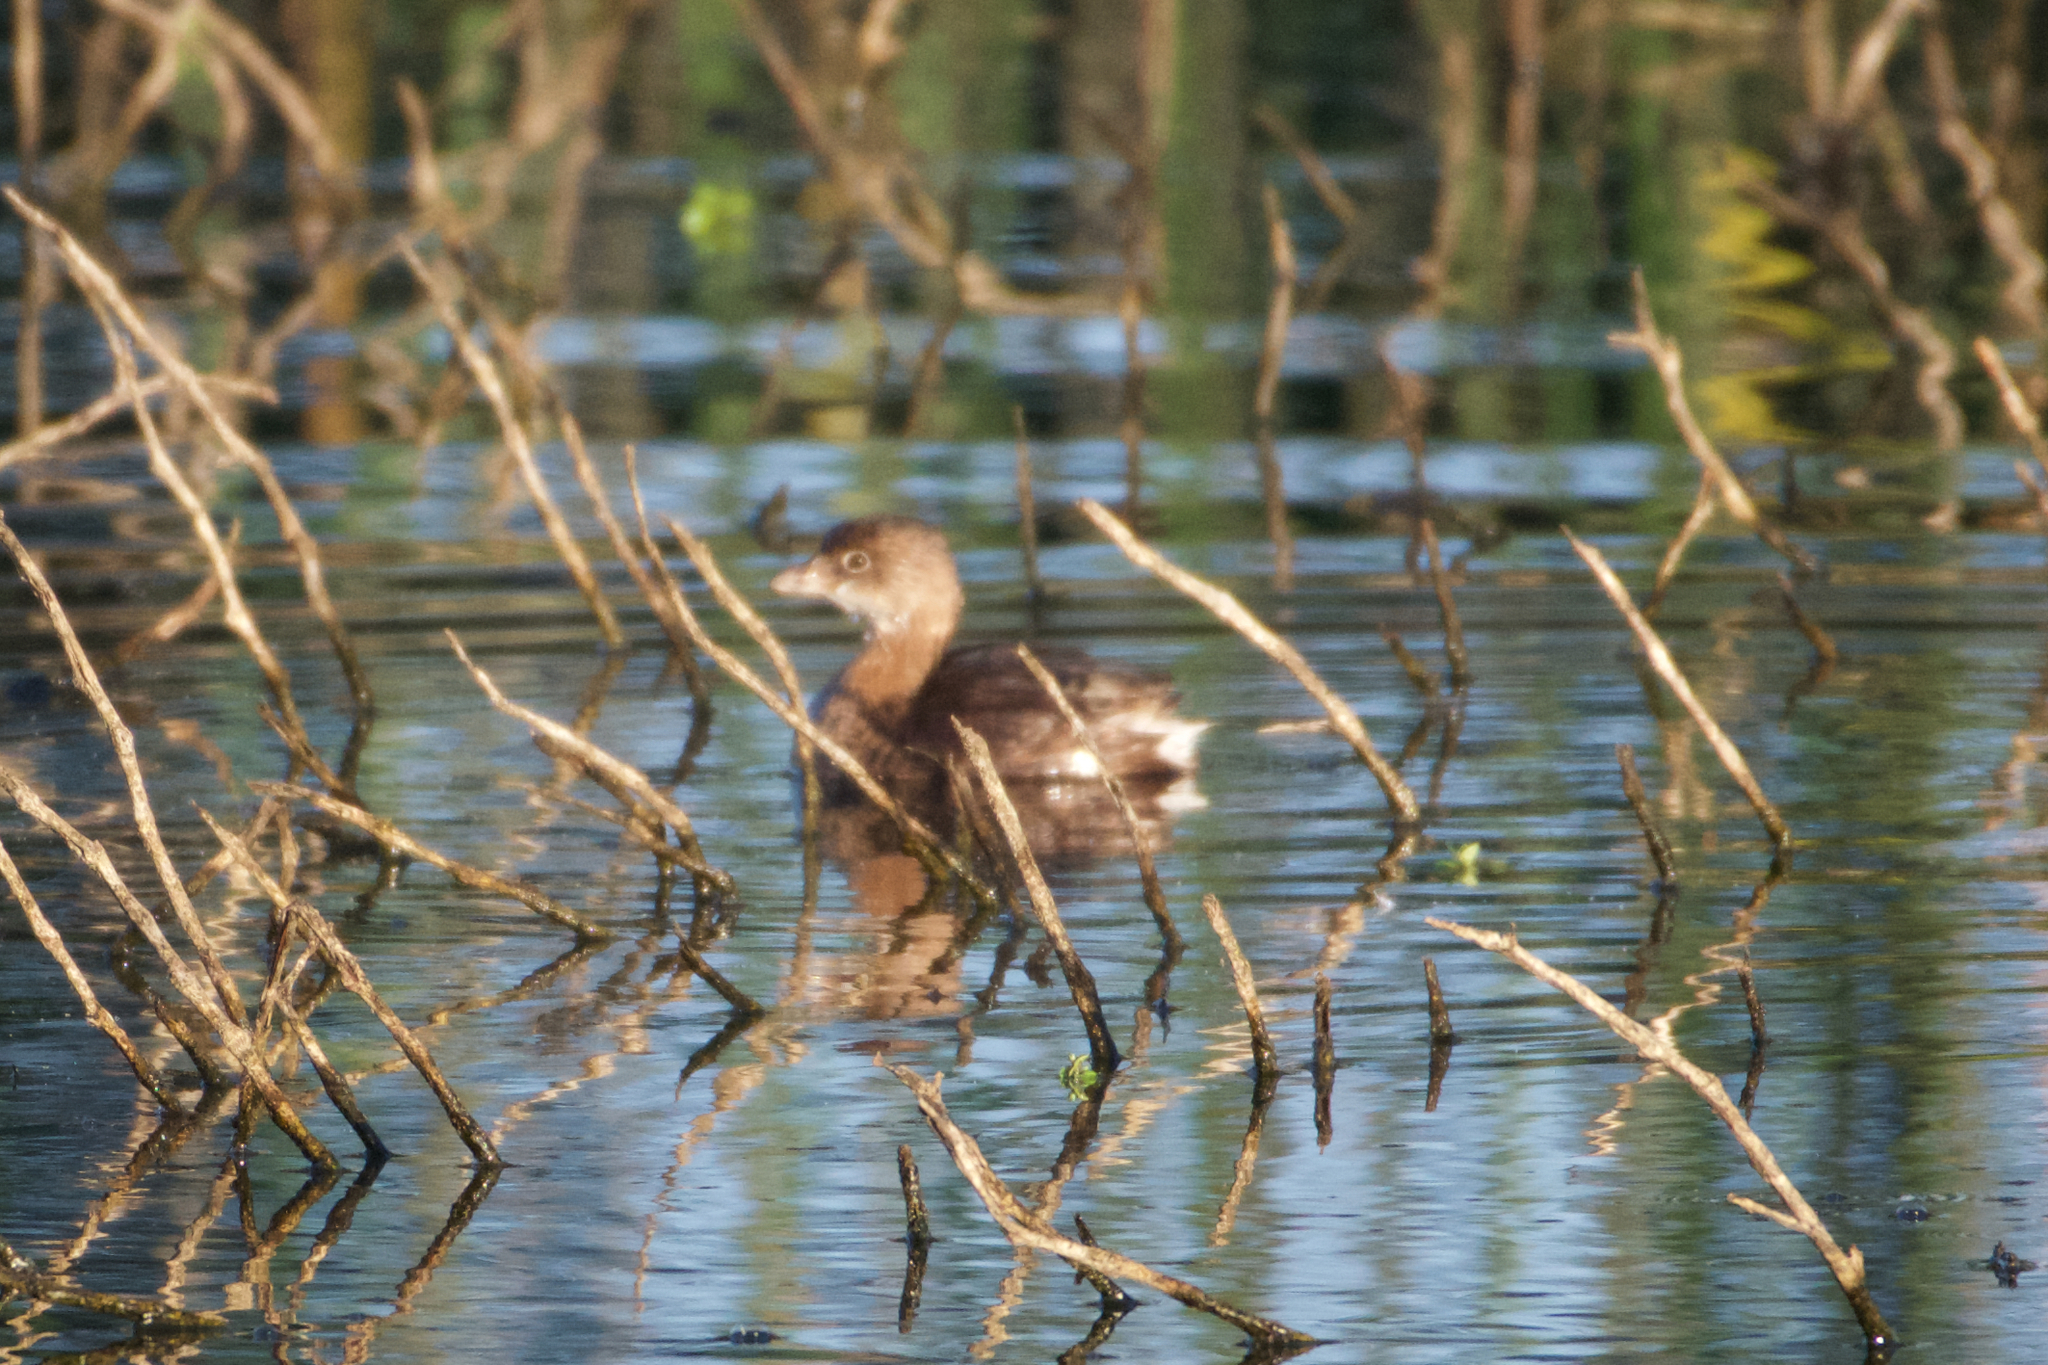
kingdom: Animalia
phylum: Chordata
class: Aves
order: Podicipediformes
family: Podicipedidae
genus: Podilymbus
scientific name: Podilymbus podiceps
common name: Pied-billed grebe
